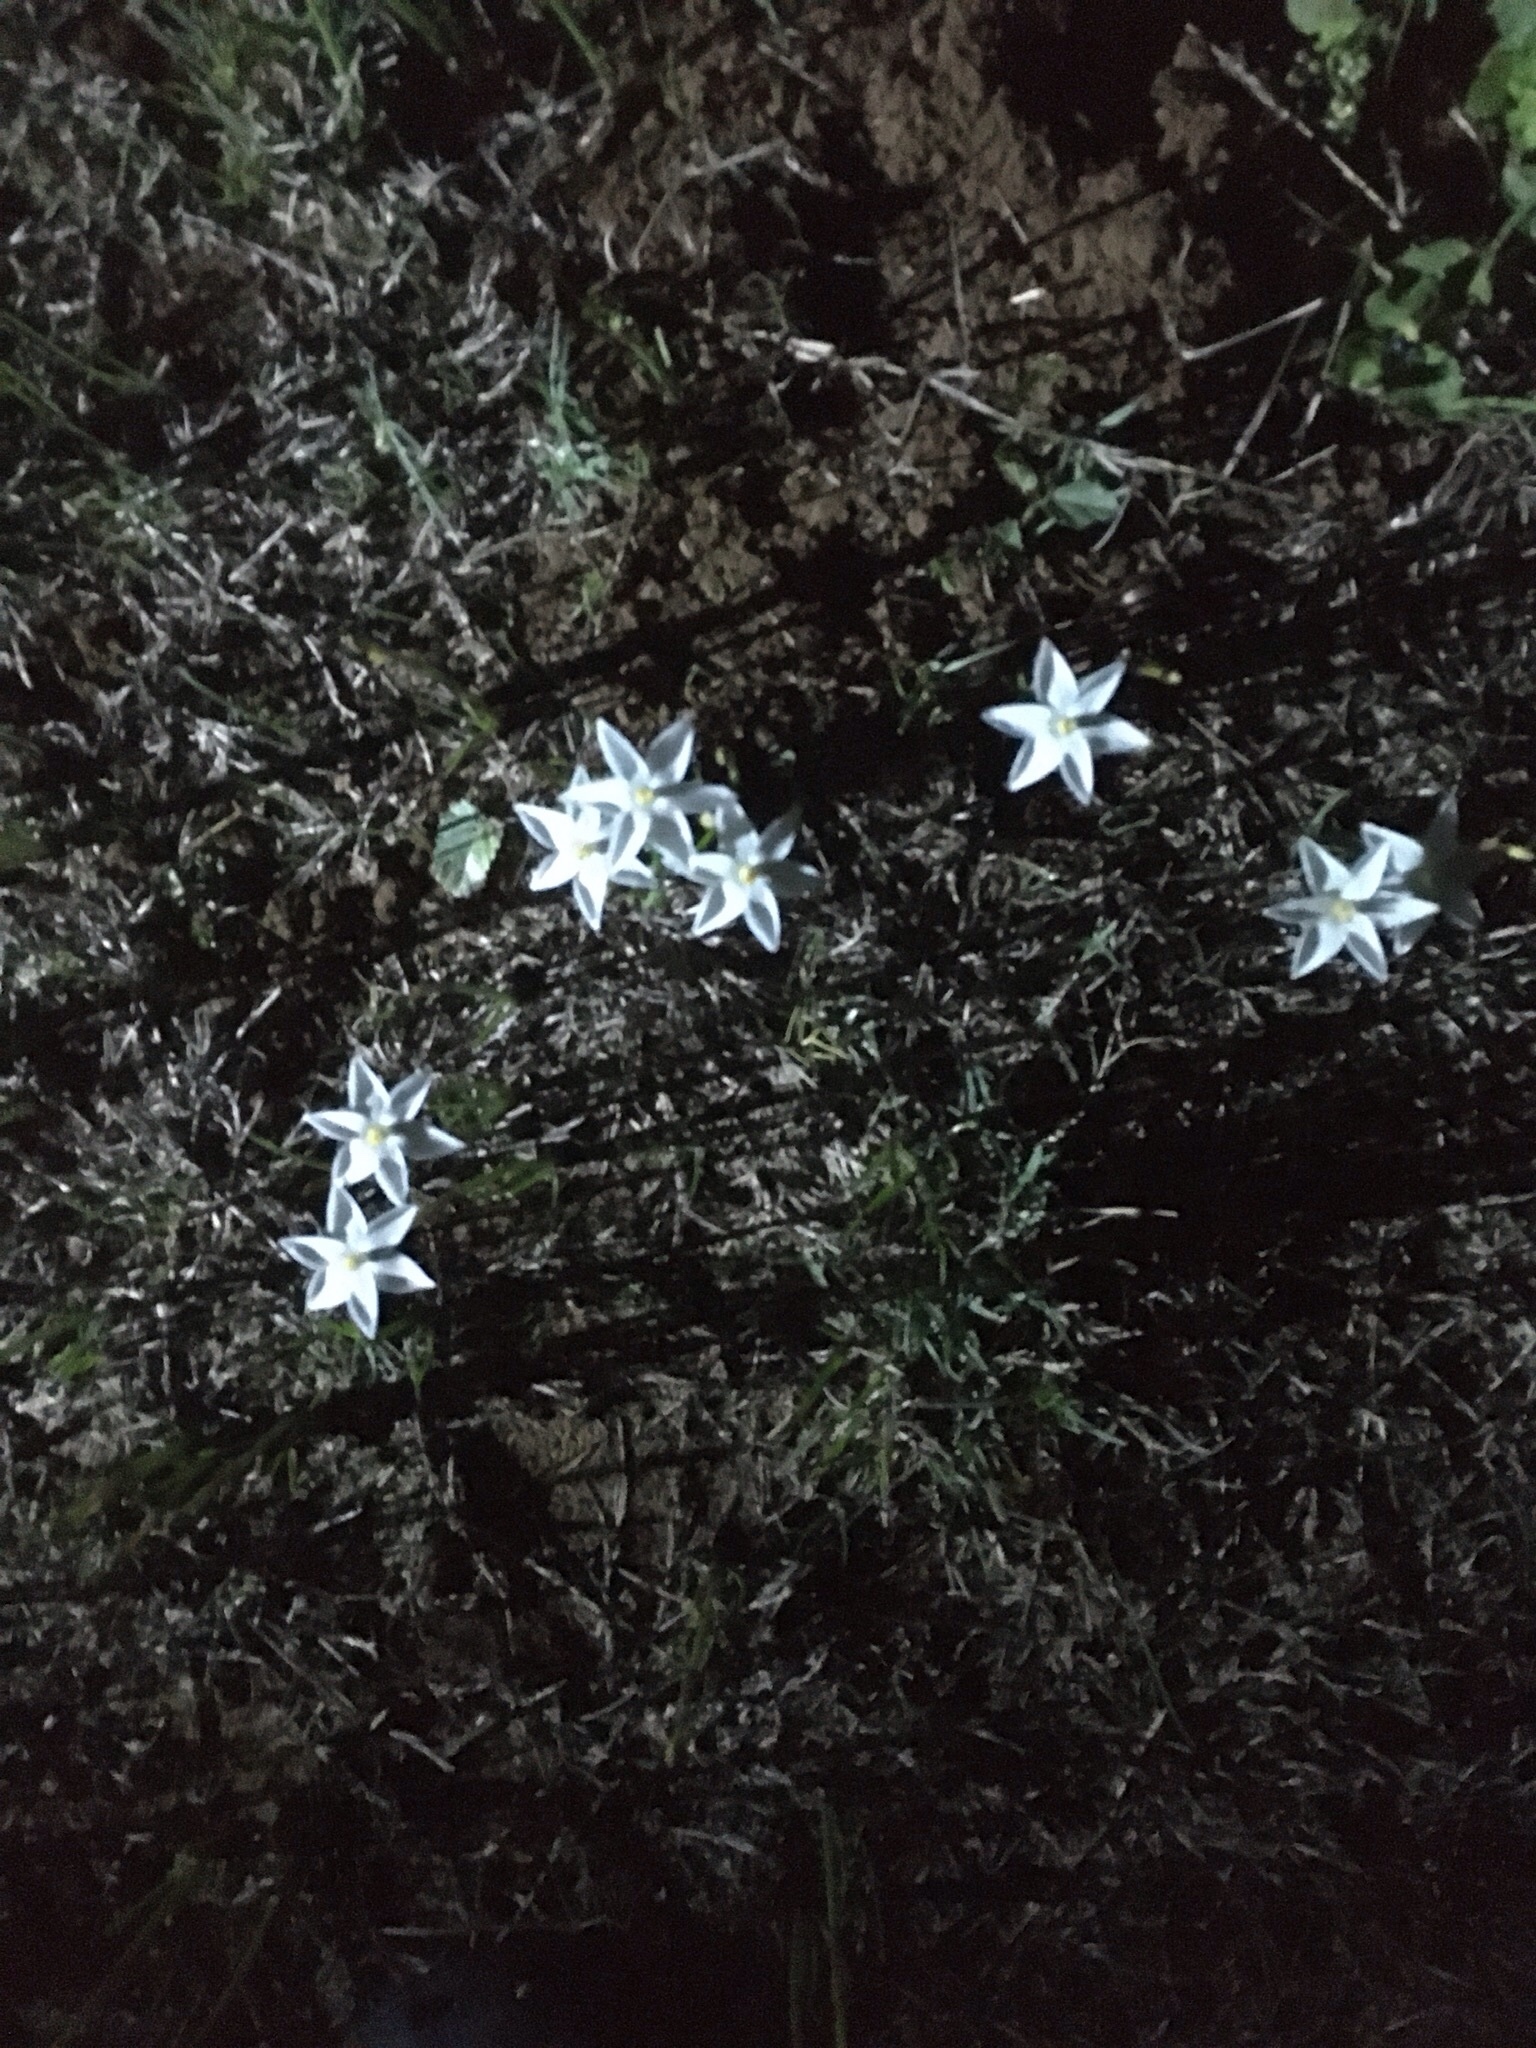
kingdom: Plantae
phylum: Tracheophyta
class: Liliopsida
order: Asparagales
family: Amaryllidaceae
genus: Zephyranthes
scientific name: Zephyranthes chlorosolen
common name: Evening rain-lily
